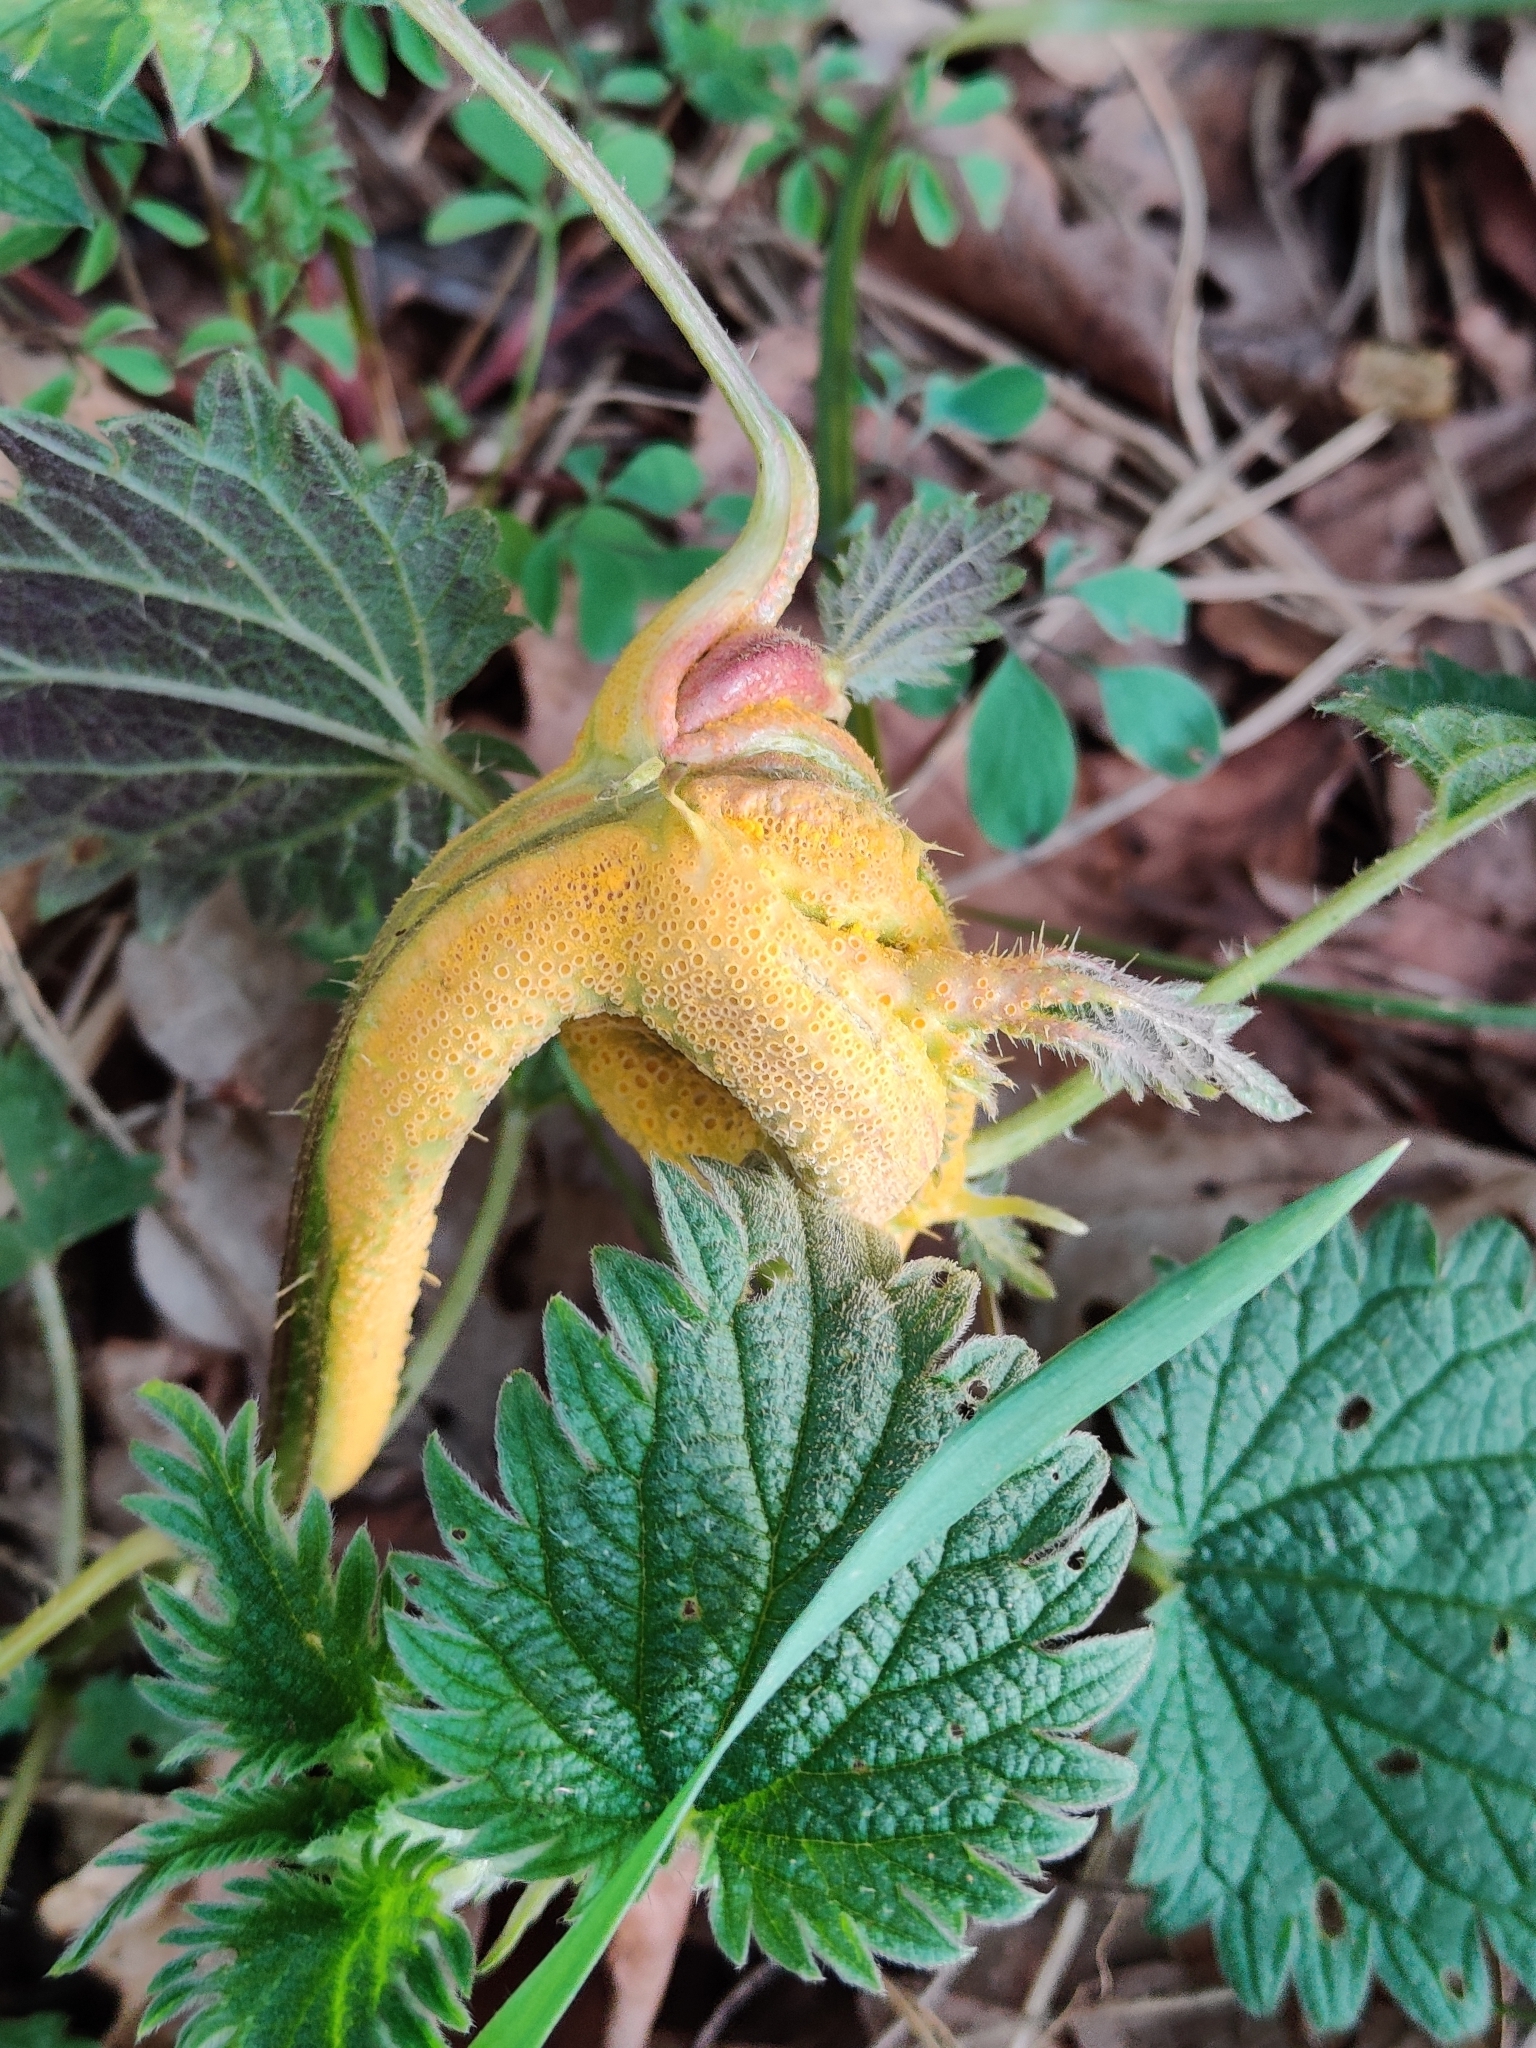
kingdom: Fungi
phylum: Basidiomycota
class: Pucciniomycetes
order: Pucciniales
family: Pucciniaceae
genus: Puccinia
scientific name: Puccinia urticata
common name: Nettle clustercup rust fungus
